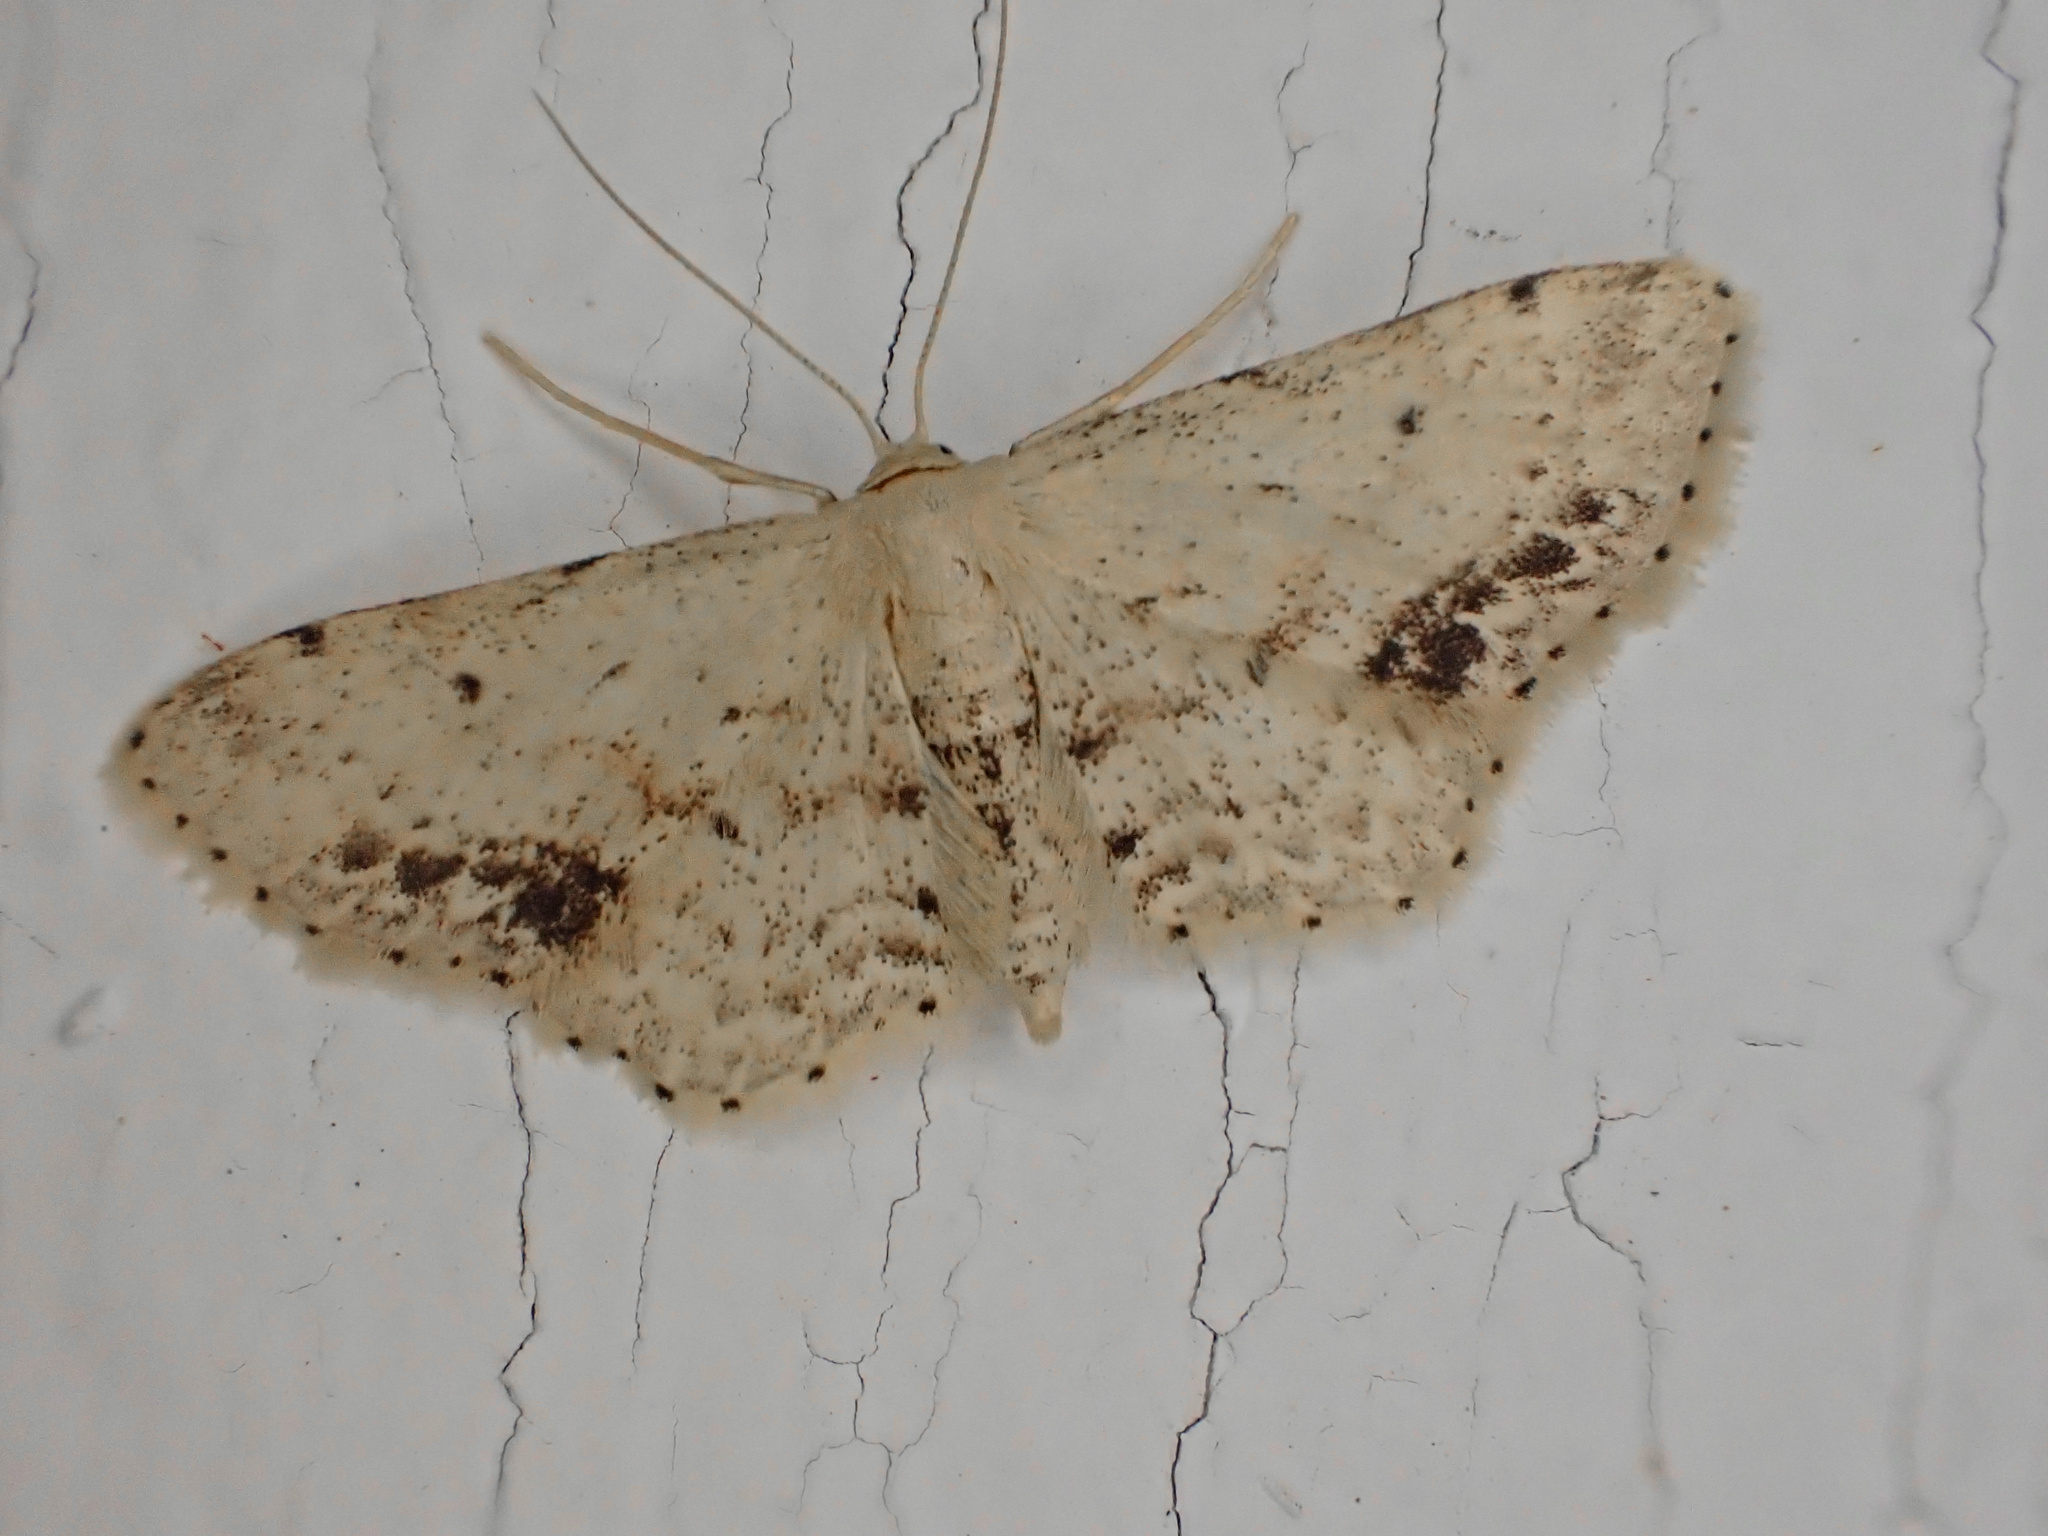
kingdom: Animalia
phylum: Arthropoda
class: Insecta
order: Lepidoptera
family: Geometridae
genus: Idaea
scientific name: Idaea dimidiata
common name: Single-dotted wave
